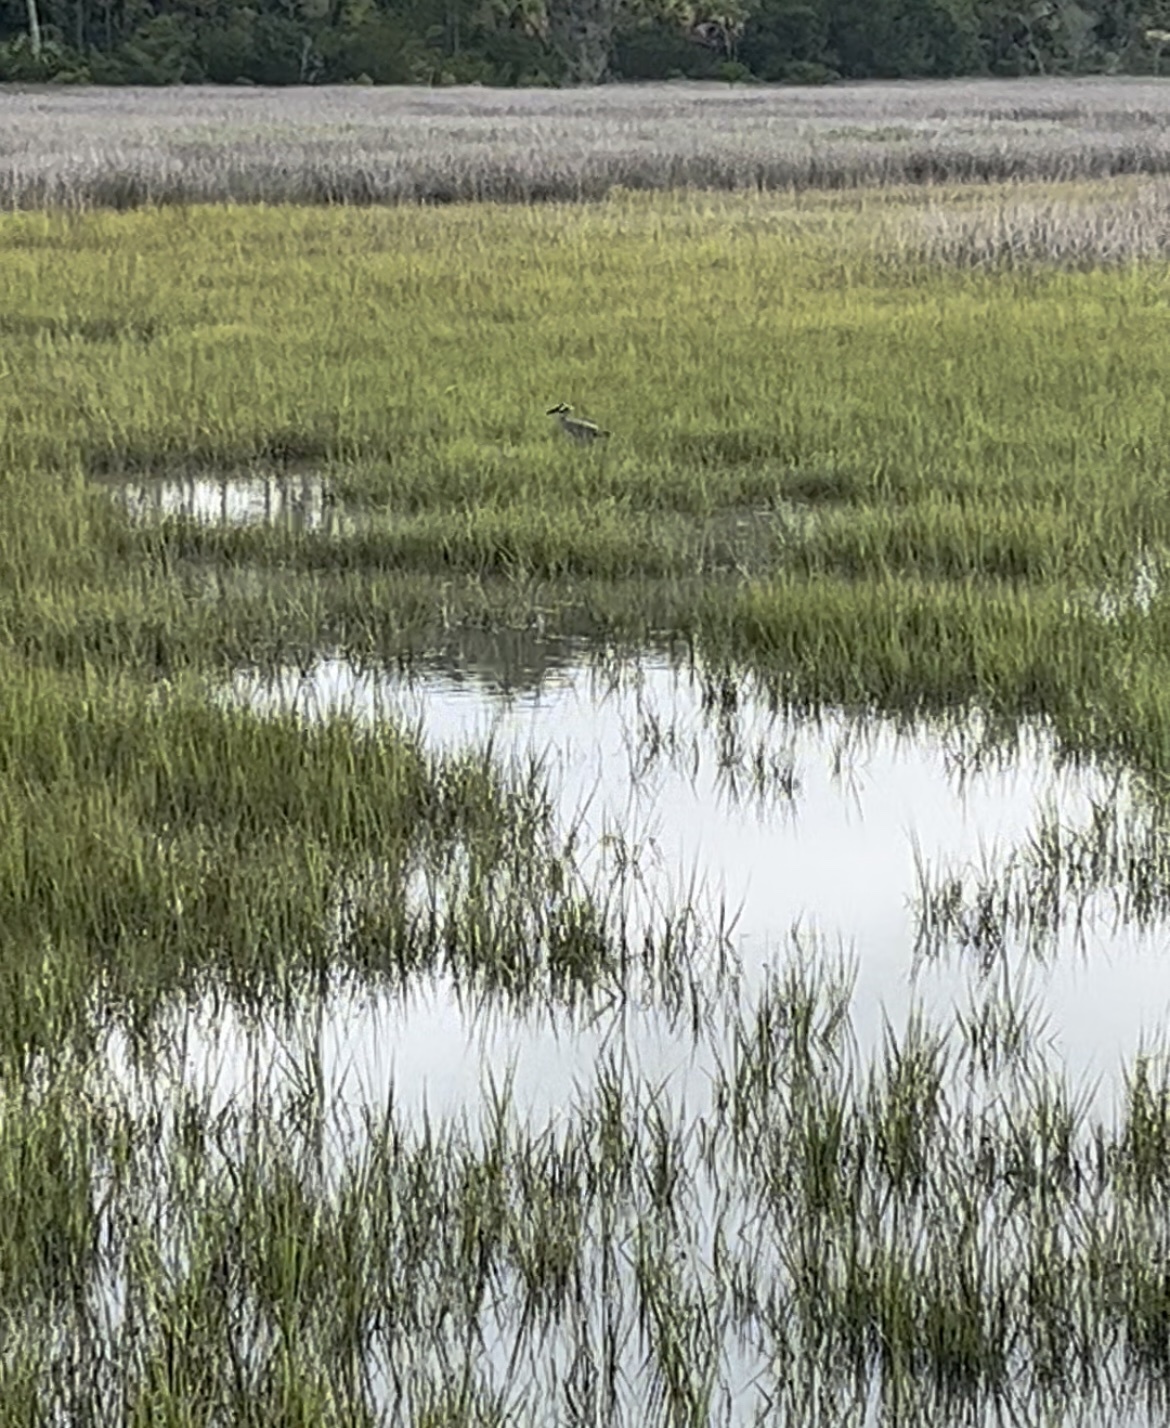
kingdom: Animalia
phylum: Chordata
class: Aves
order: Pelecaniformes
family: Ardeidae
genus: Nyctanassa
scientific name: Nyctanassa violacea
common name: Yellow-crowned night heron
